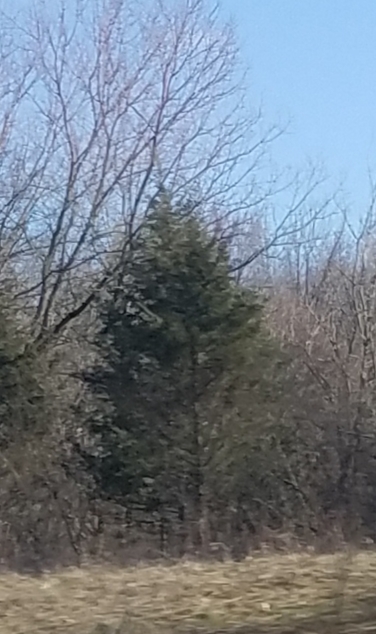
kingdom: Plantae
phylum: Tracheophyta
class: Pinopsida
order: Pinales
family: Cupressaceae
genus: Juniperus
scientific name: Juniperus virginiana
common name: Red juniper
